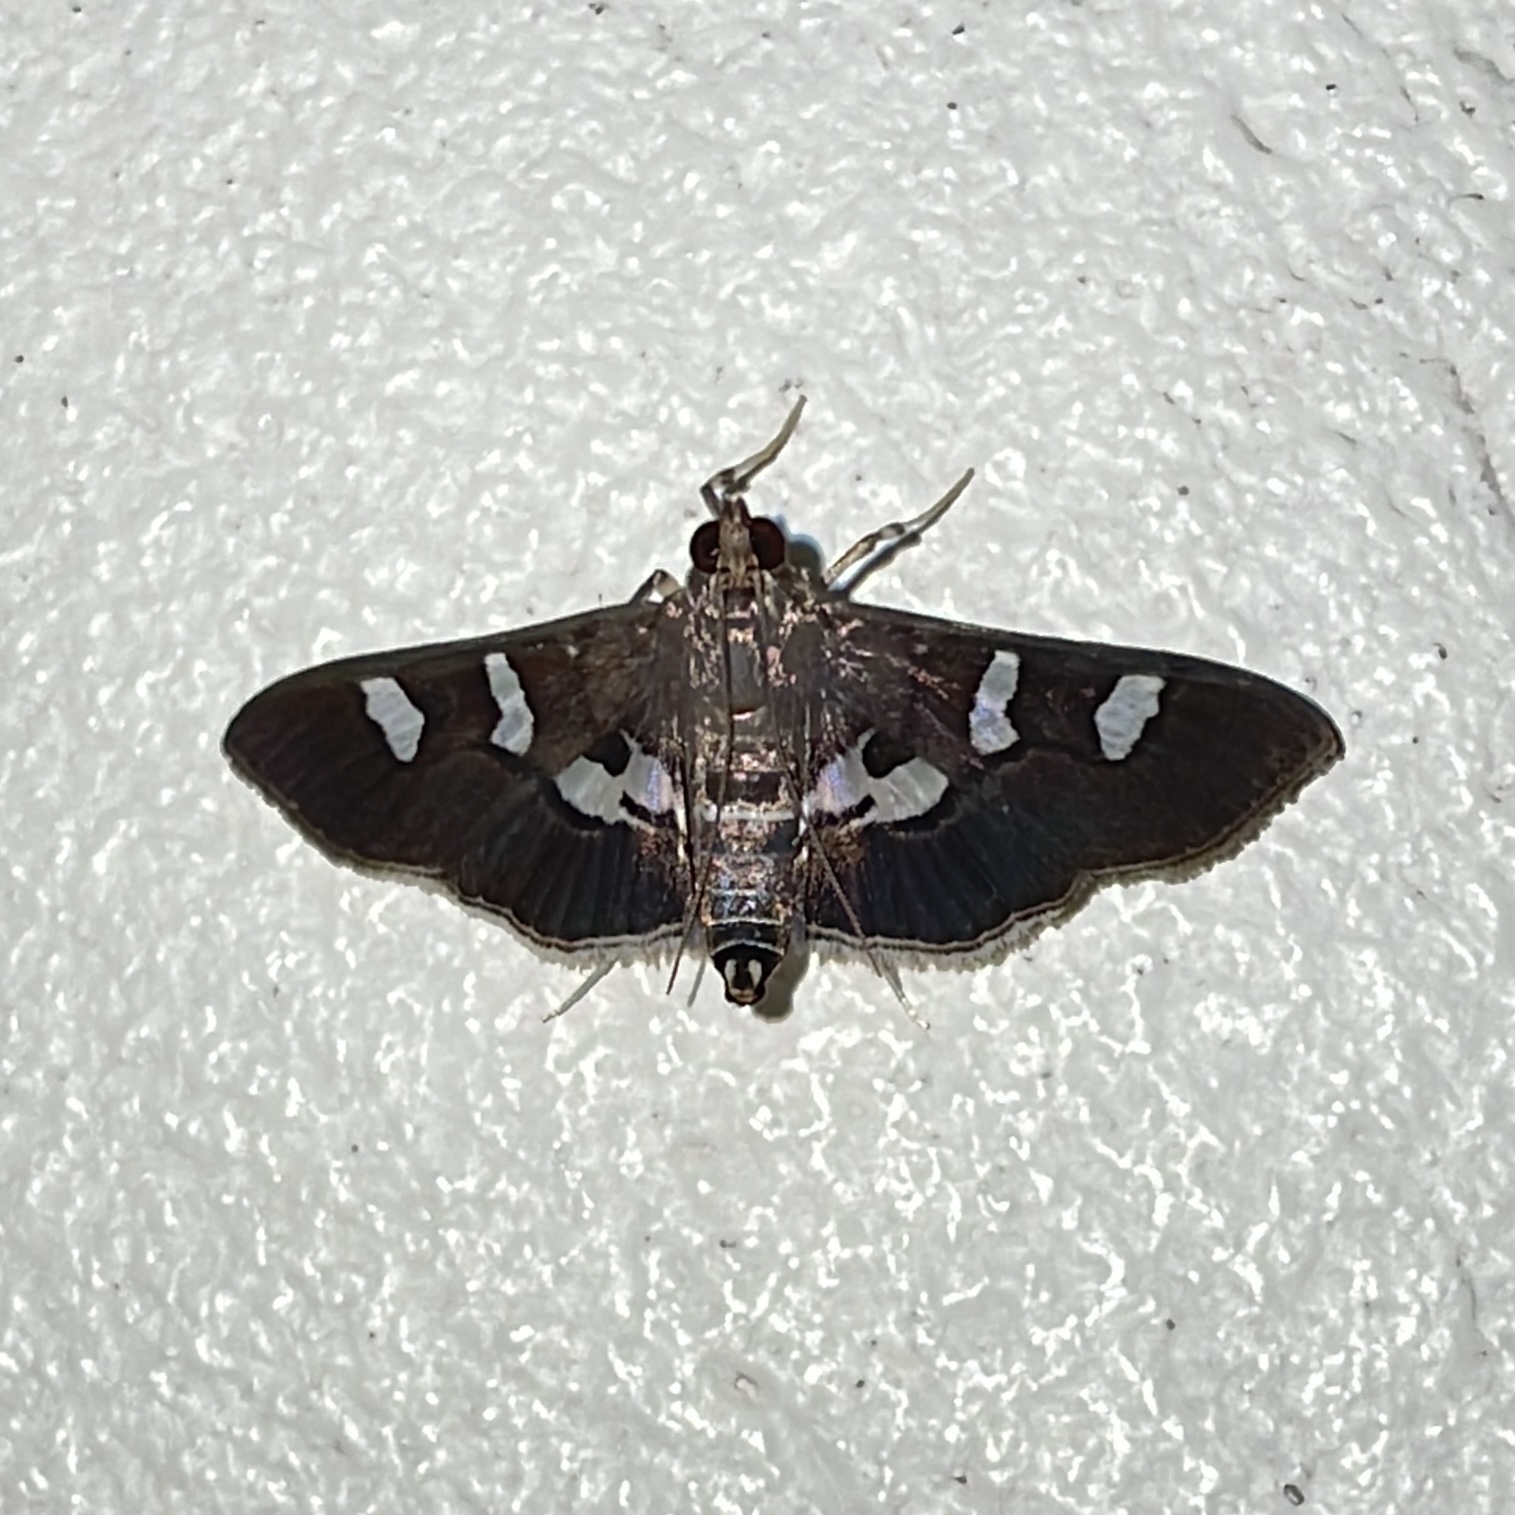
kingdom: Animalia
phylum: Arthropoda
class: Insecta
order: Lepidoptera
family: Crambidae
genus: Desmia
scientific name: Desmia tages
